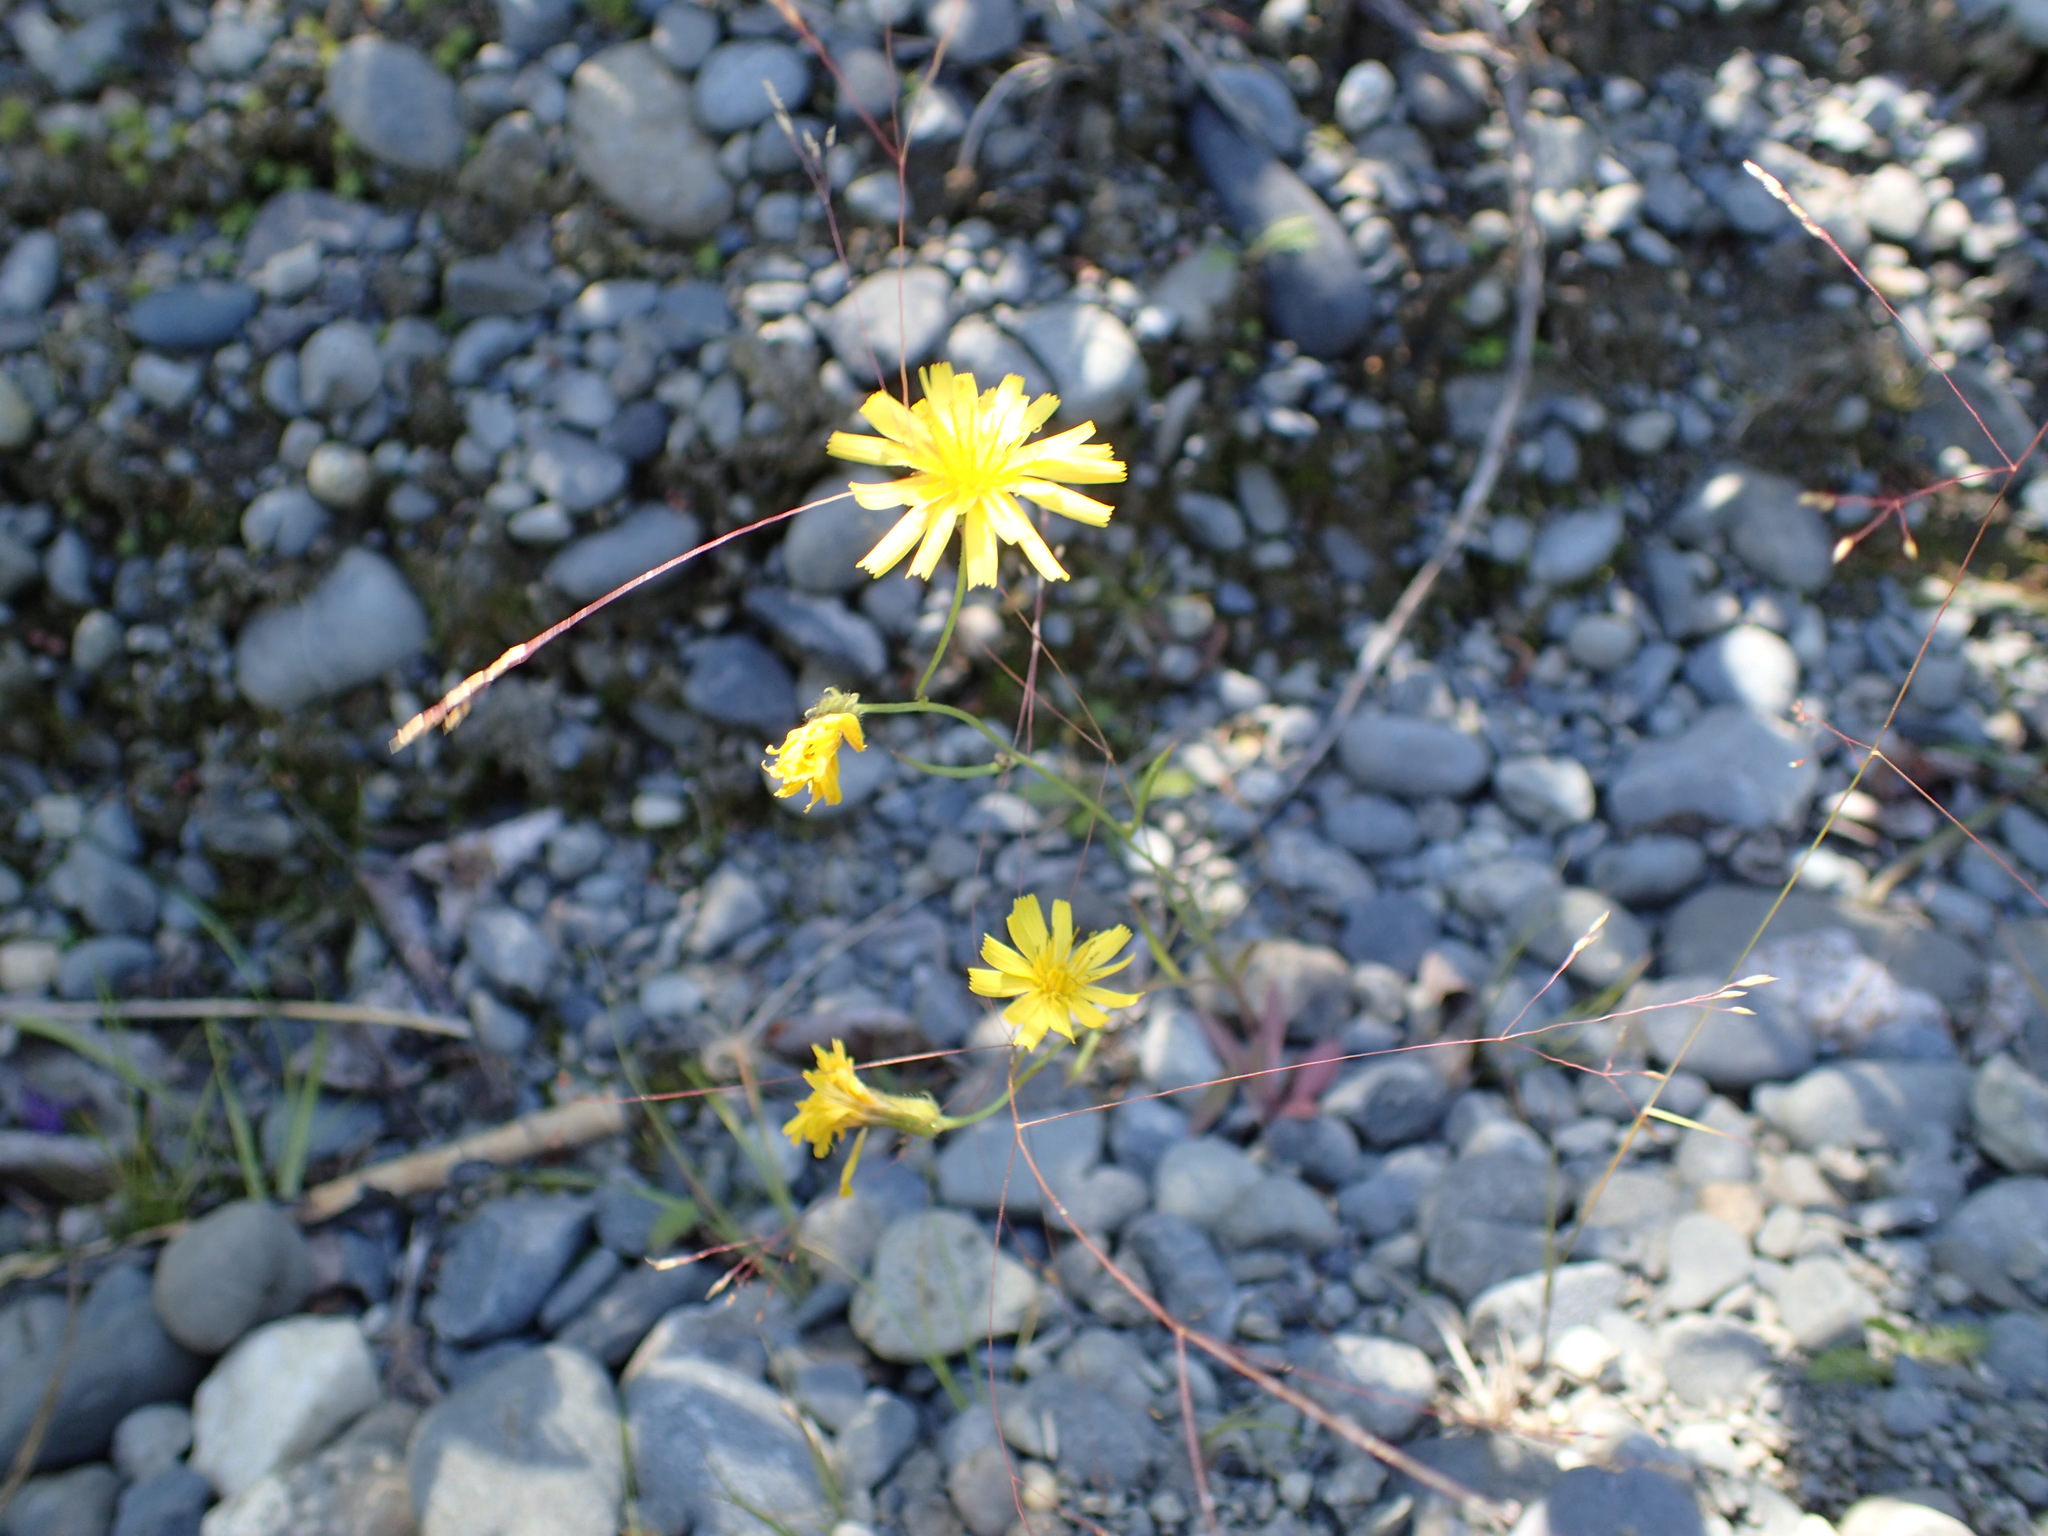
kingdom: Plantae
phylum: Tracheophyta
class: Magnoliopsida
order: Asterales
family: Asteraceae
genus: Crepis
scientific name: Crepis tectorum
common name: Narrow-leaved hawk's-beard
